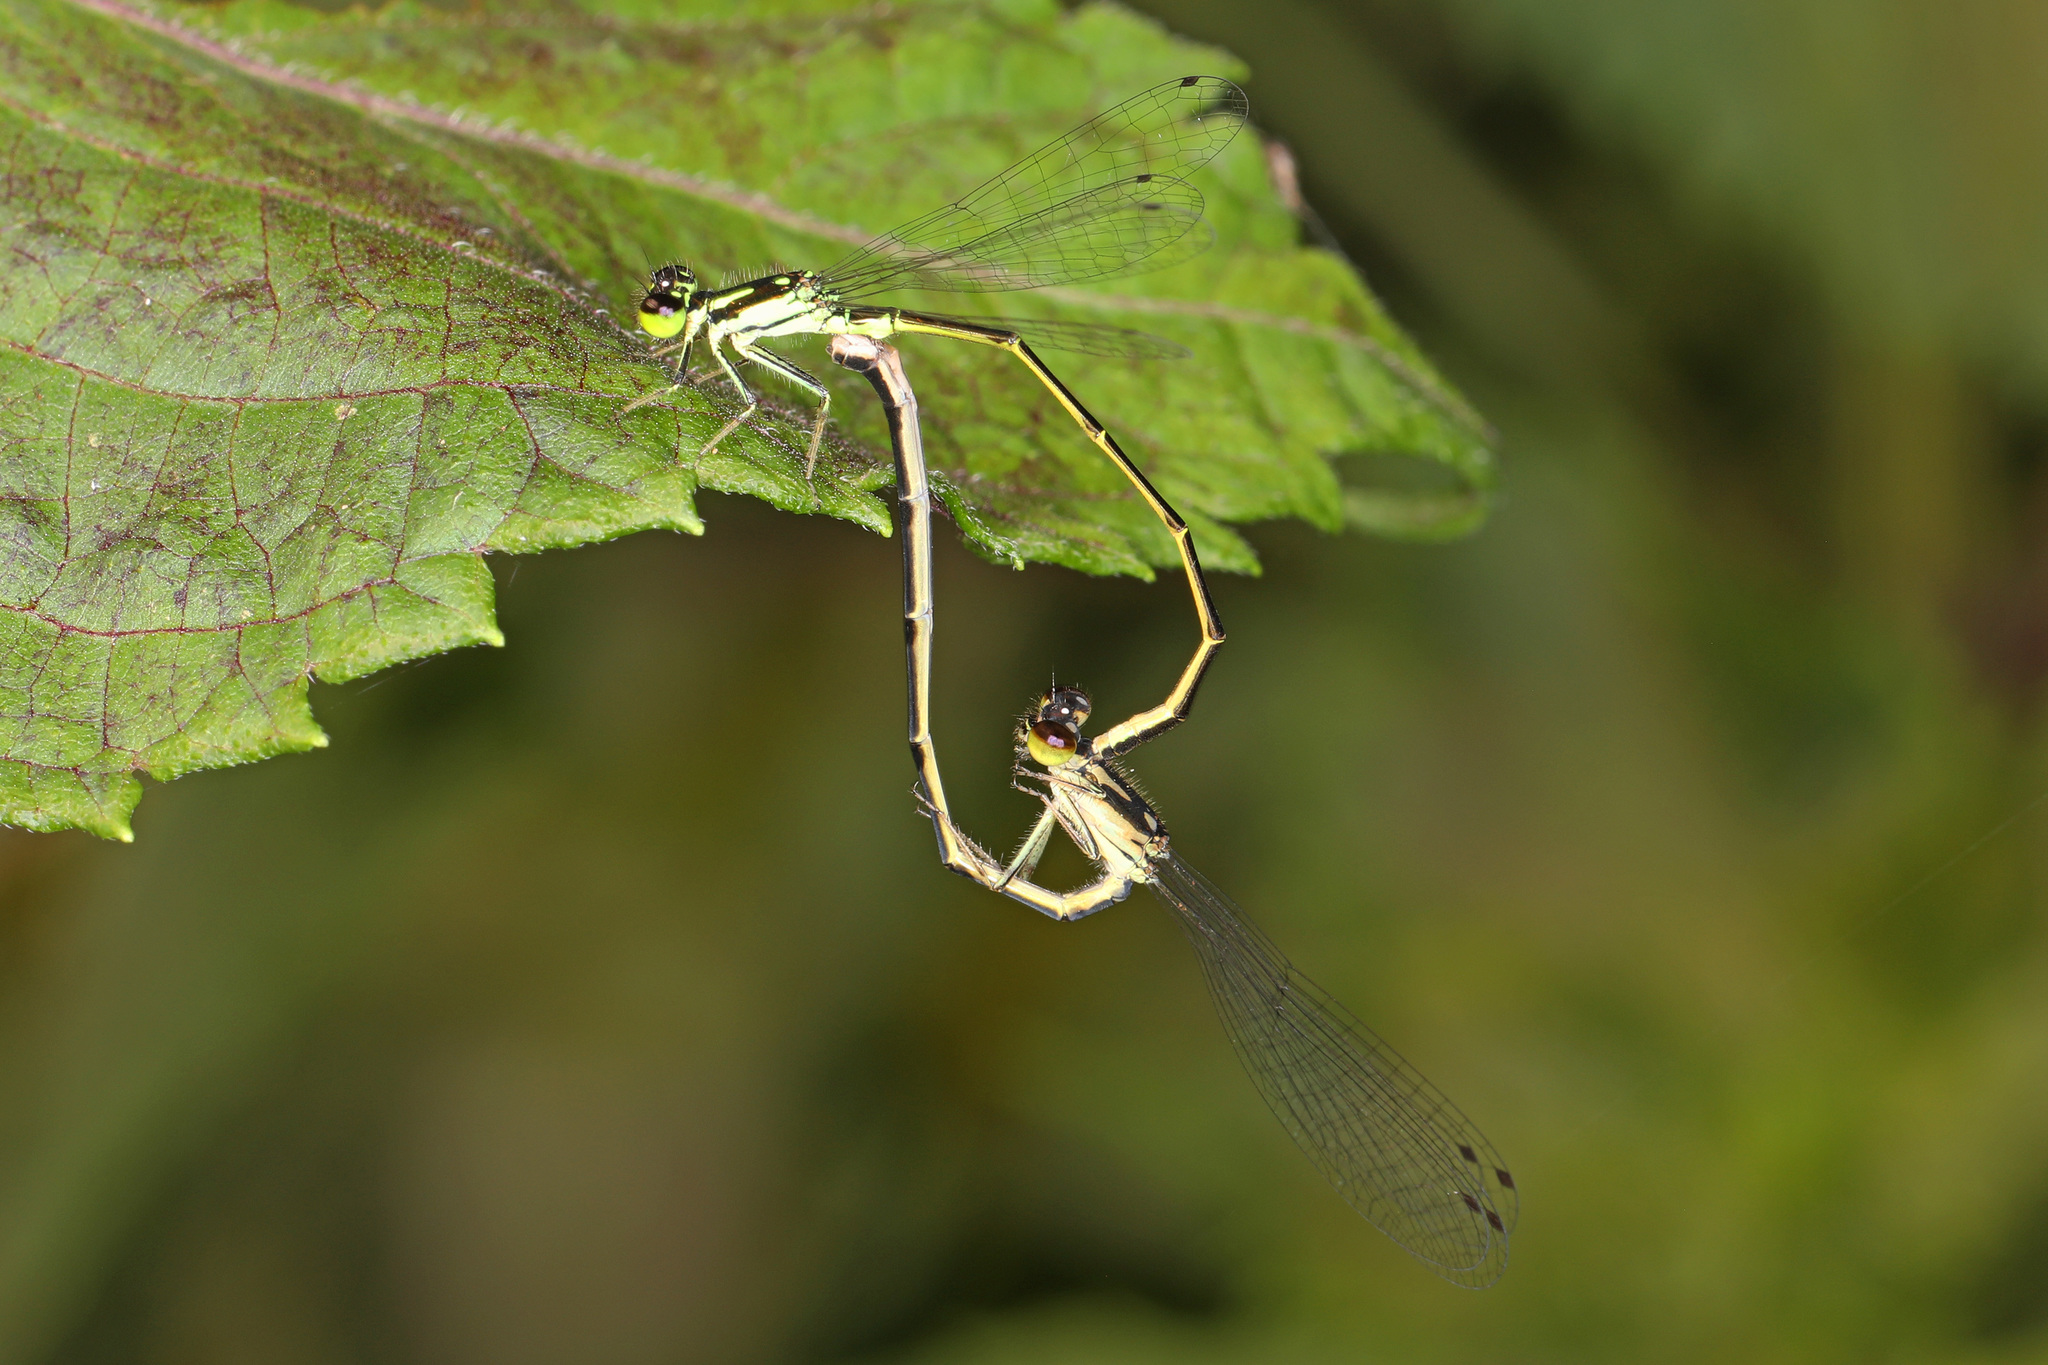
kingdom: Animalia
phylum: Arthropoda
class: Insecta
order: Odonata
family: Coenagrionidae
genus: Ischnura
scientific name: Ischnura posita
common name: Fragile forktail
